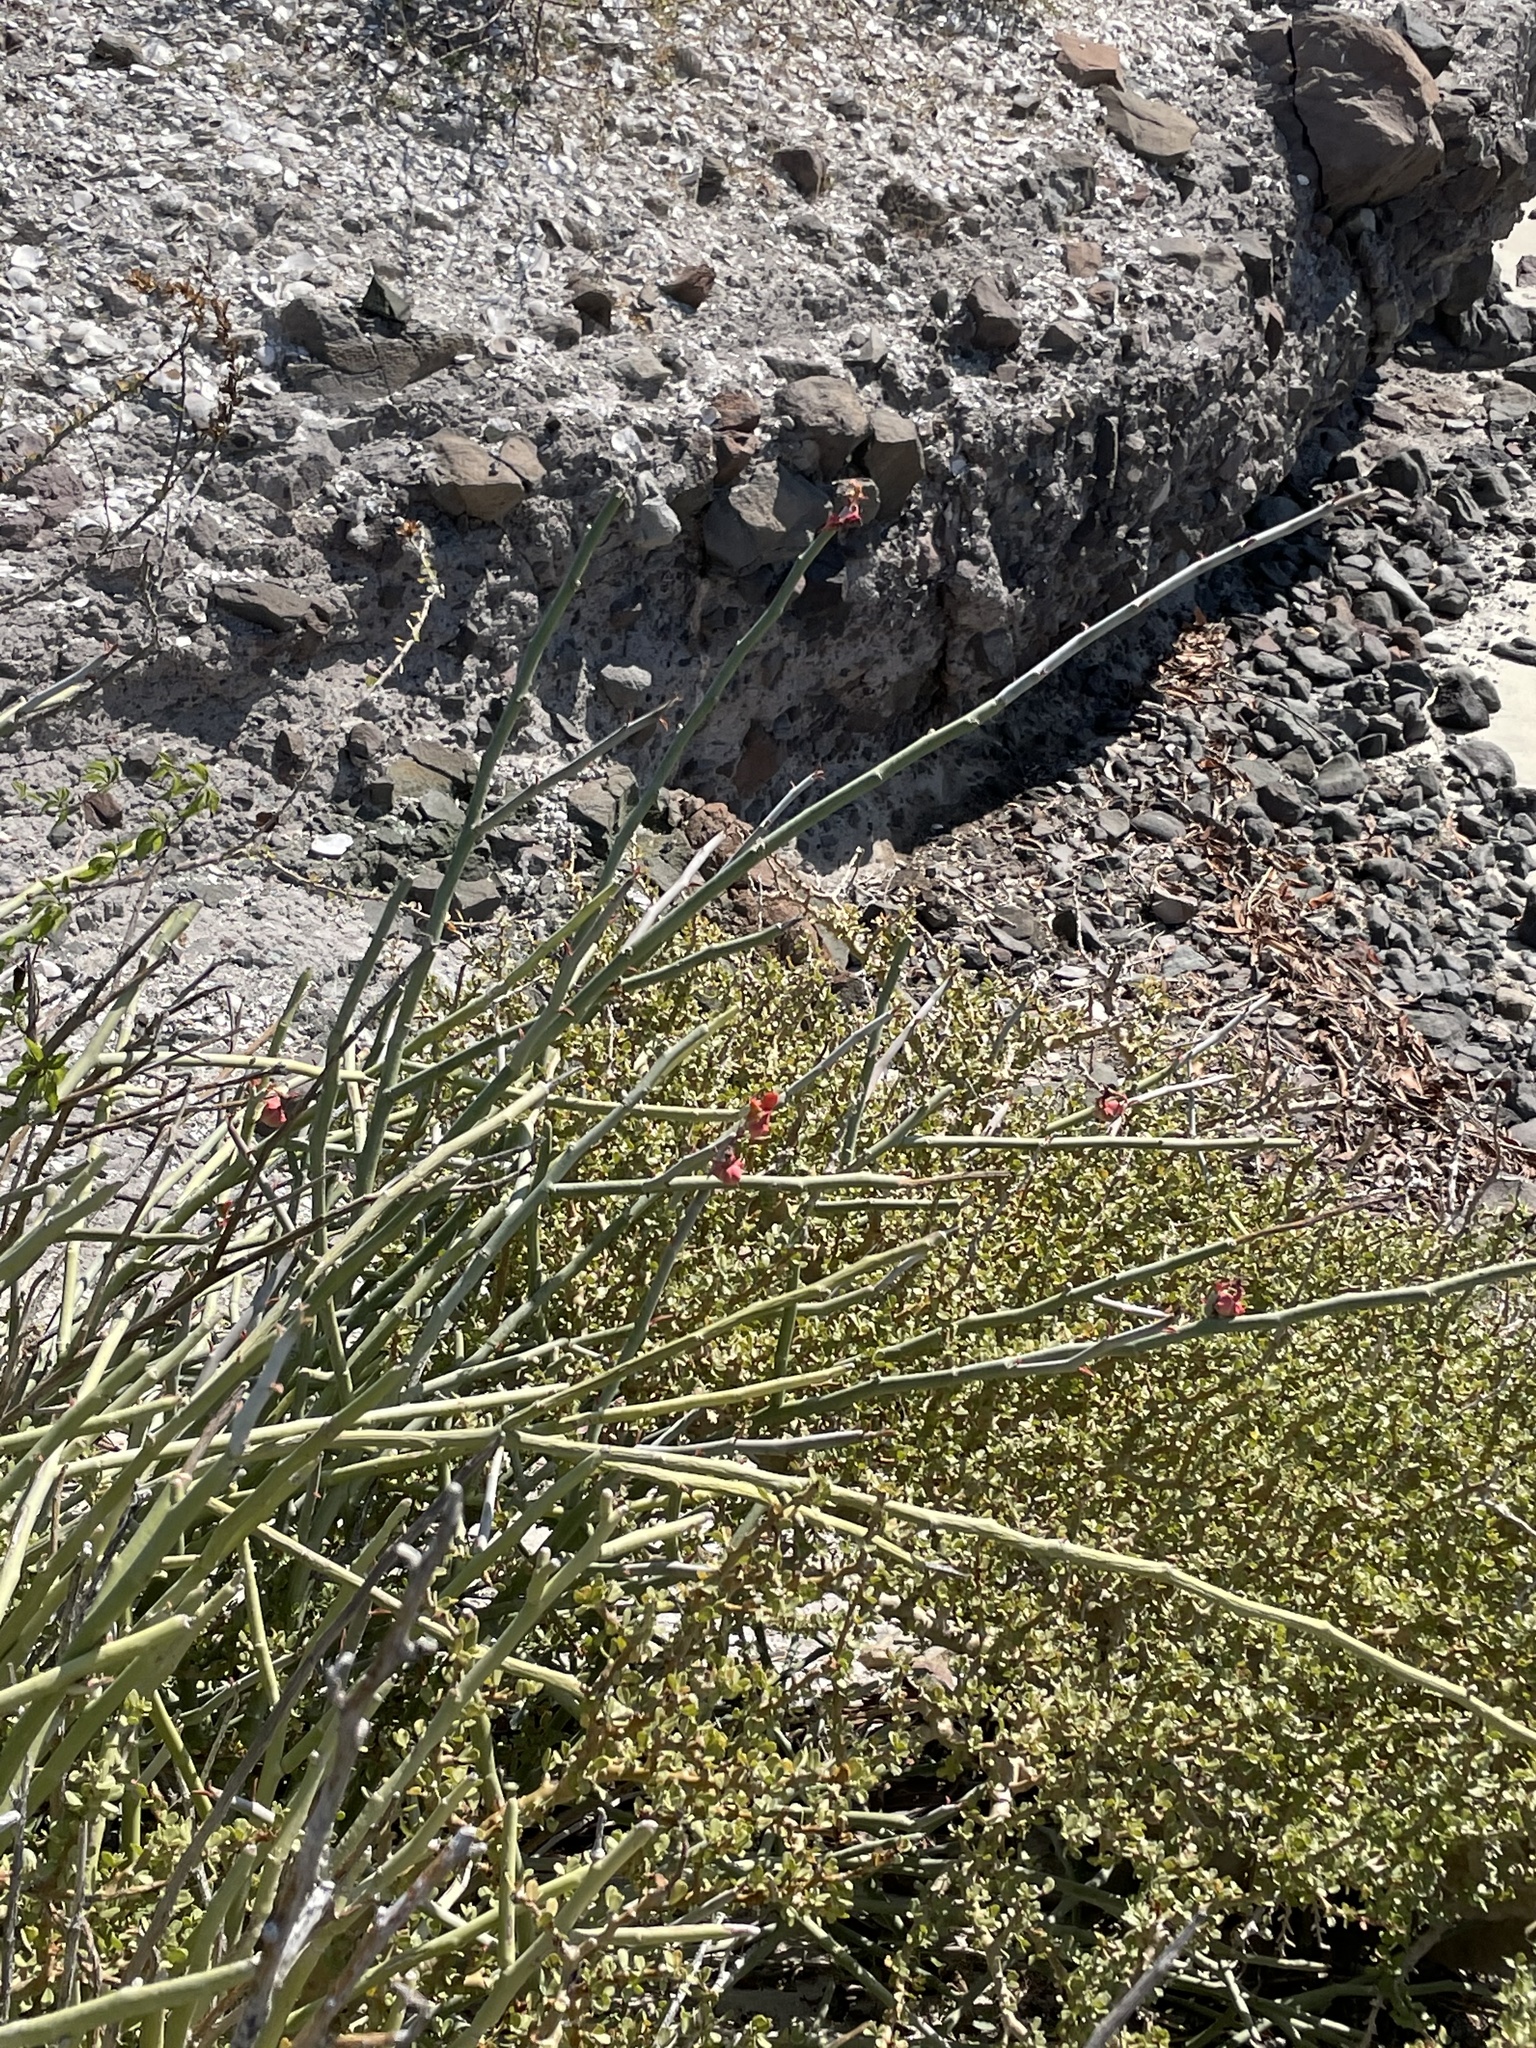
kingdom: Plantae
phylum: Tracheophyta
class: Magnoliopsida
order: Malpighiales
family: Euphorbiaceae
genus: Euphorbia
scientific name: Euphorbia lomelii
